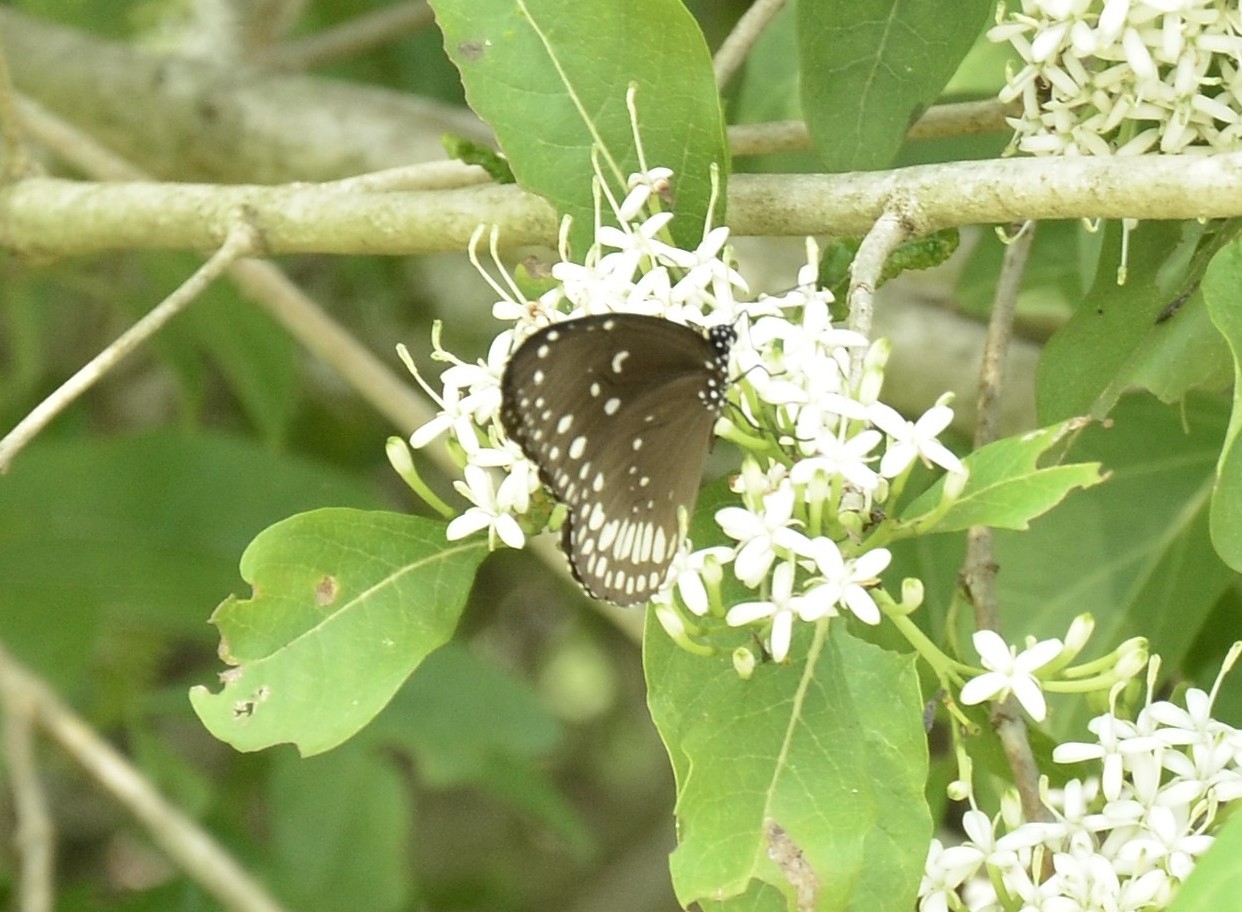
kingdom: Animalia
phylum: Arthropoda
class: Insecta
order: Lepidoptera
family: Nymphalidae
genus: Euploea
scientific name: Euploea sylvester
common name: Double-branded crow butterfly
